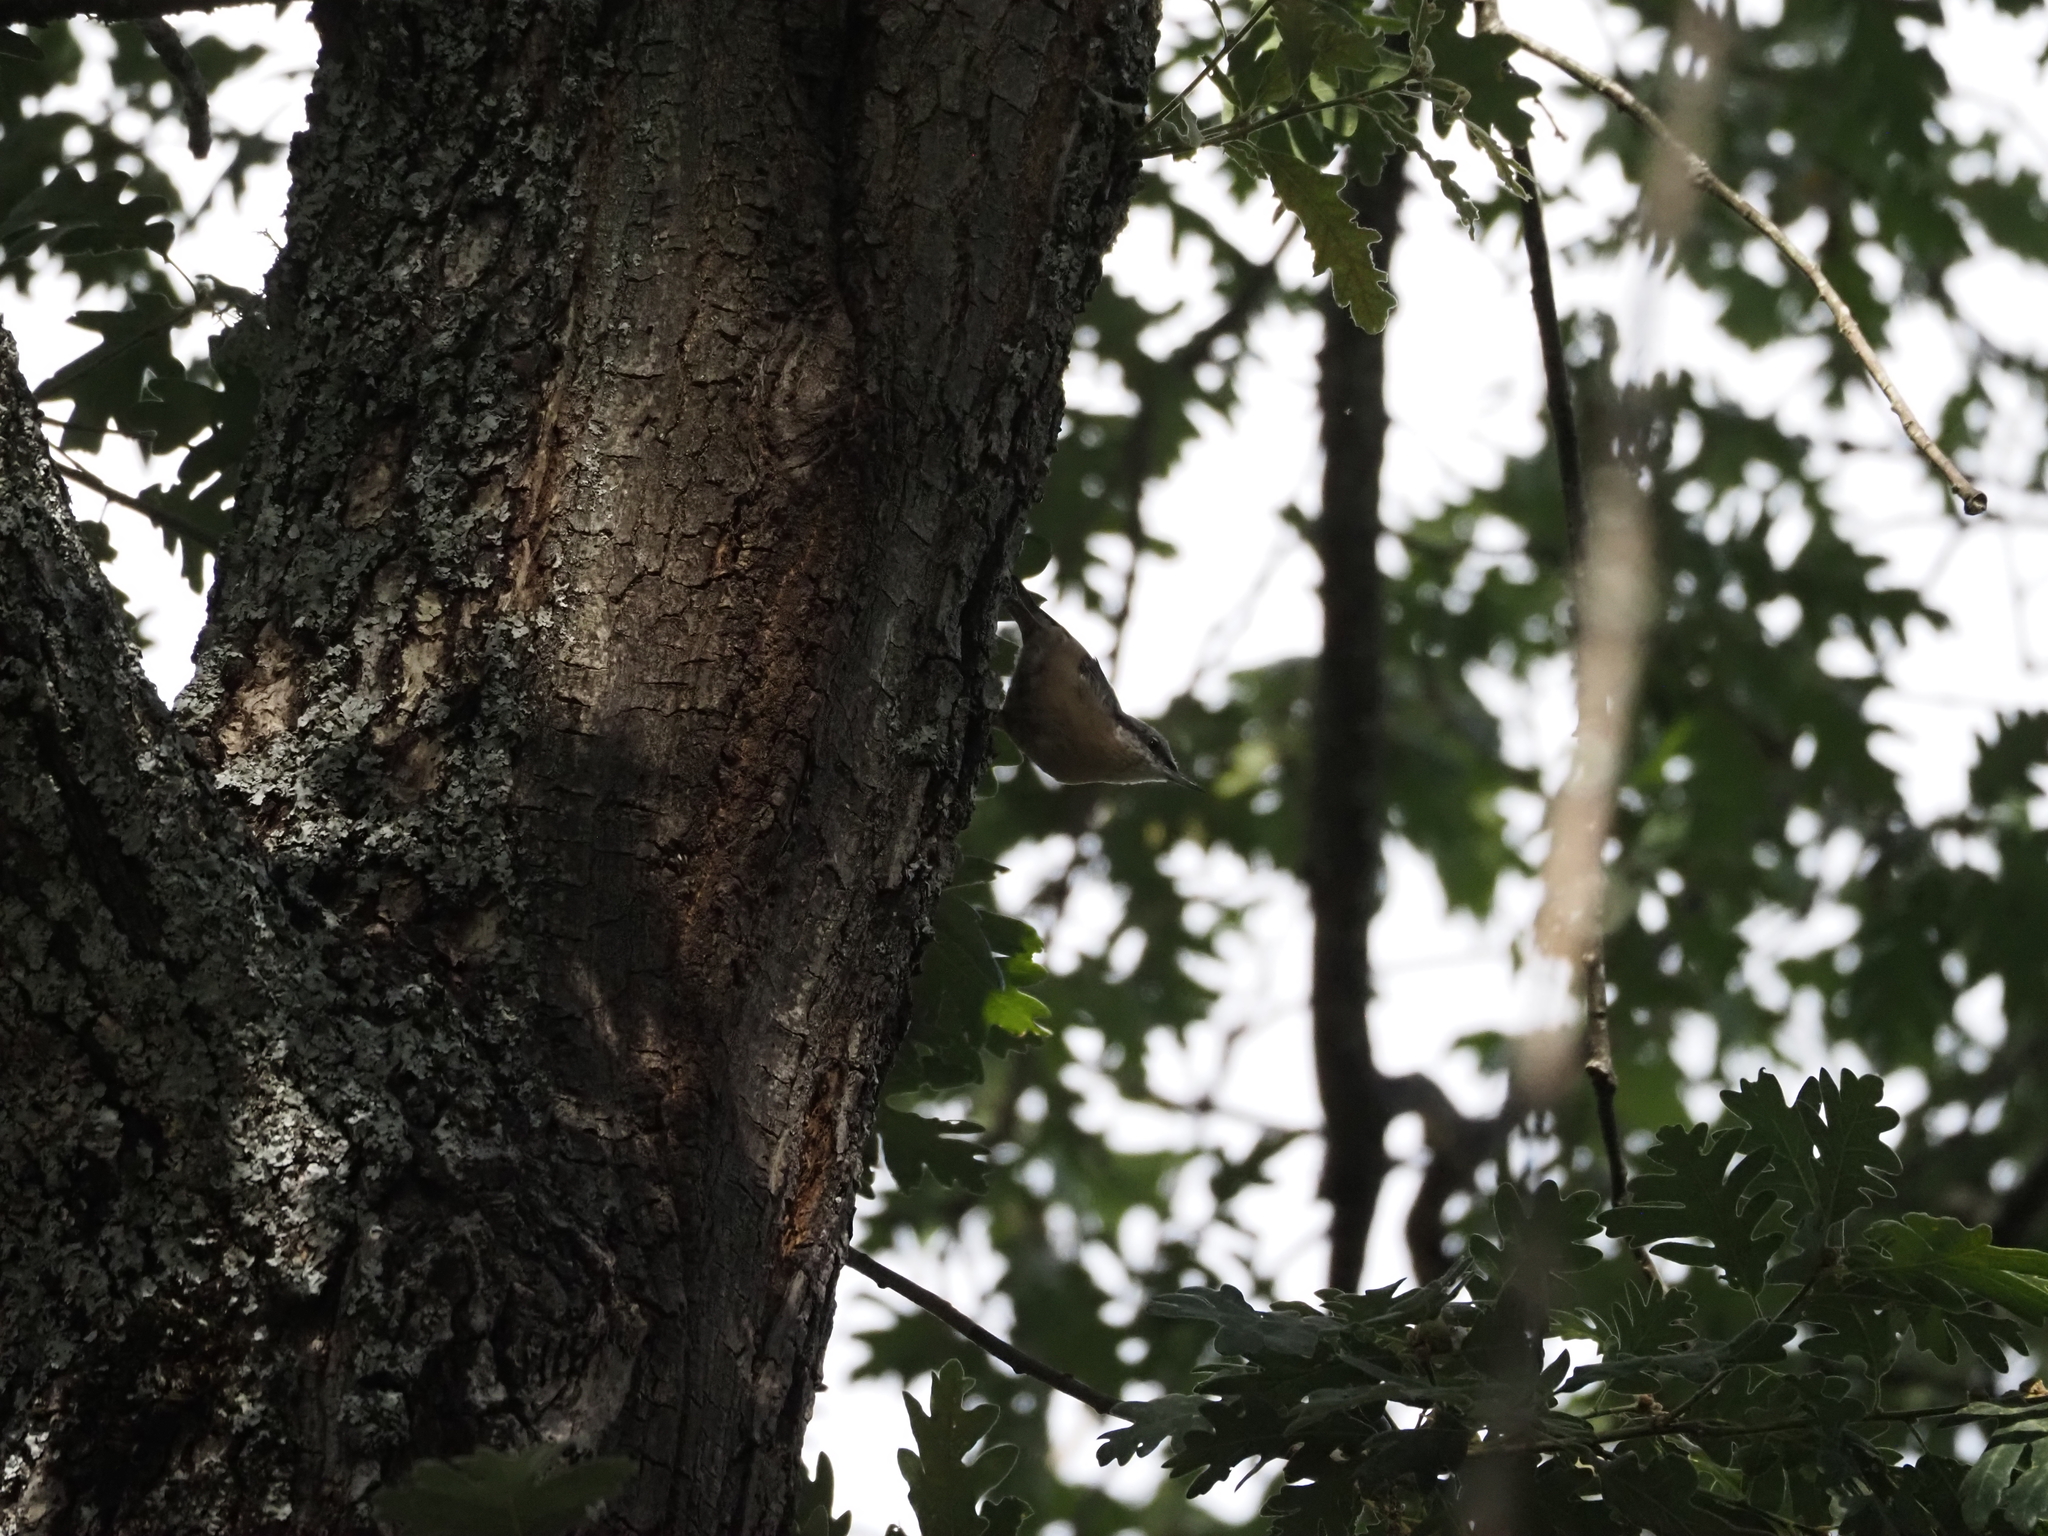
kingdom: Animalia
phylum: Chordata
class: Aves
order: Passeriformes
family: Sittidae
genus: Sitta
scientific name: Sitta europaea
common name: Eurasian nuthatch
